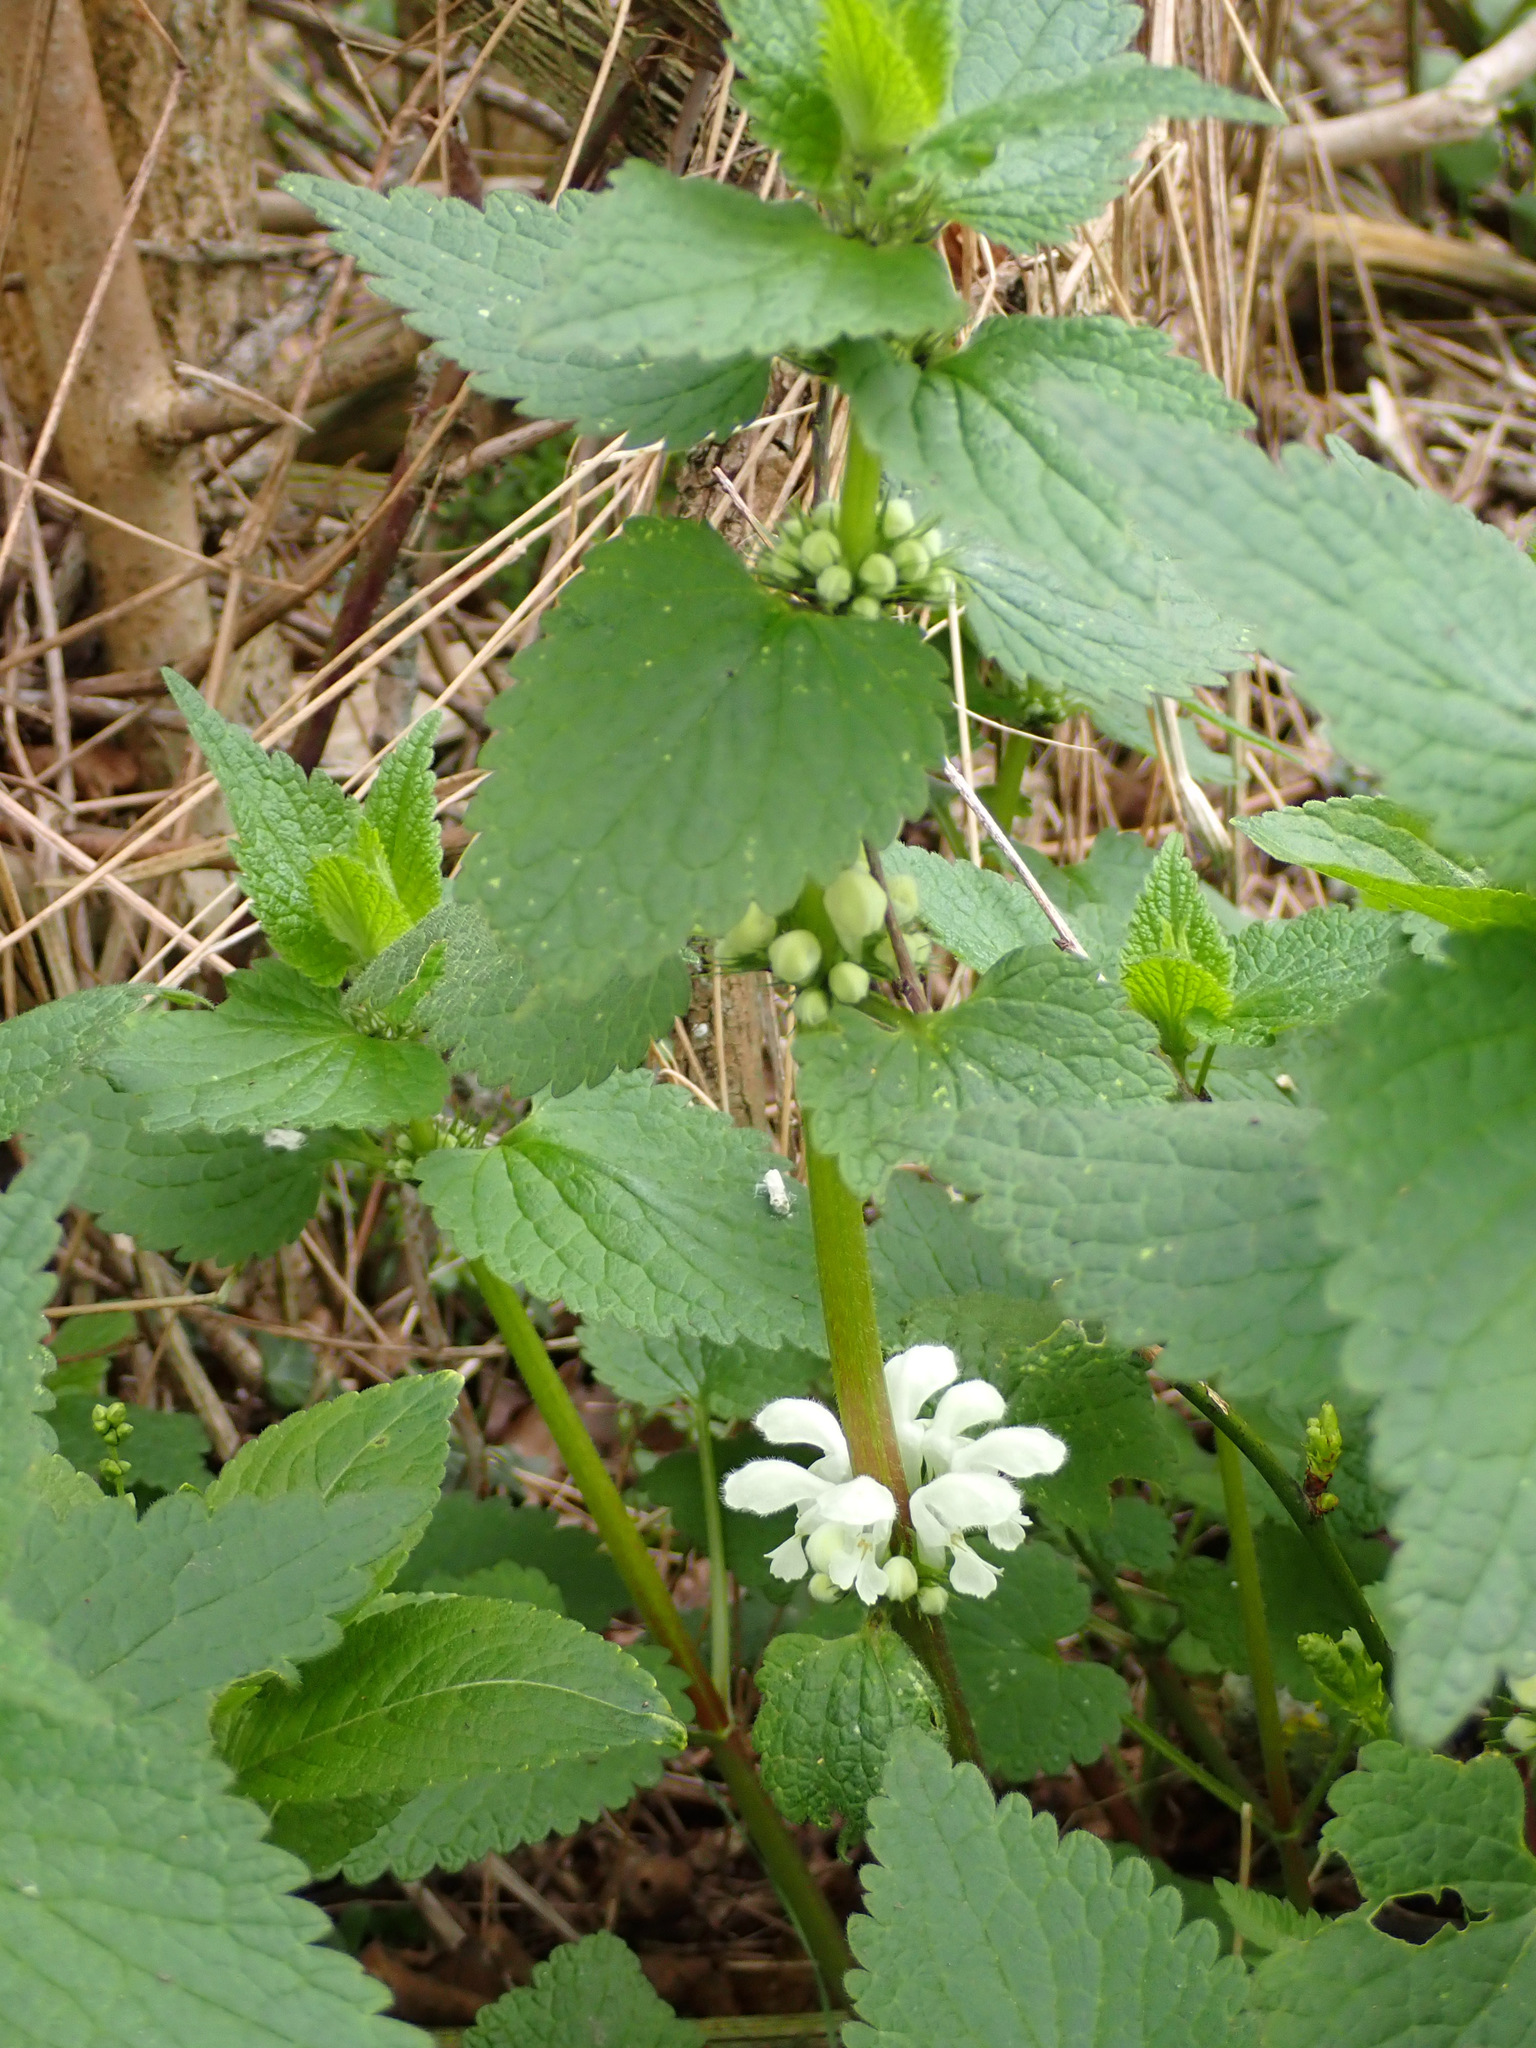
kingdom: Plantae
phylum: Tracheophyta
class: Magnoliopsida
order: Lamiales
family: Lamiaceae
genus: Lamium
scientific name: Lamium album
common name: White dead-nettle
